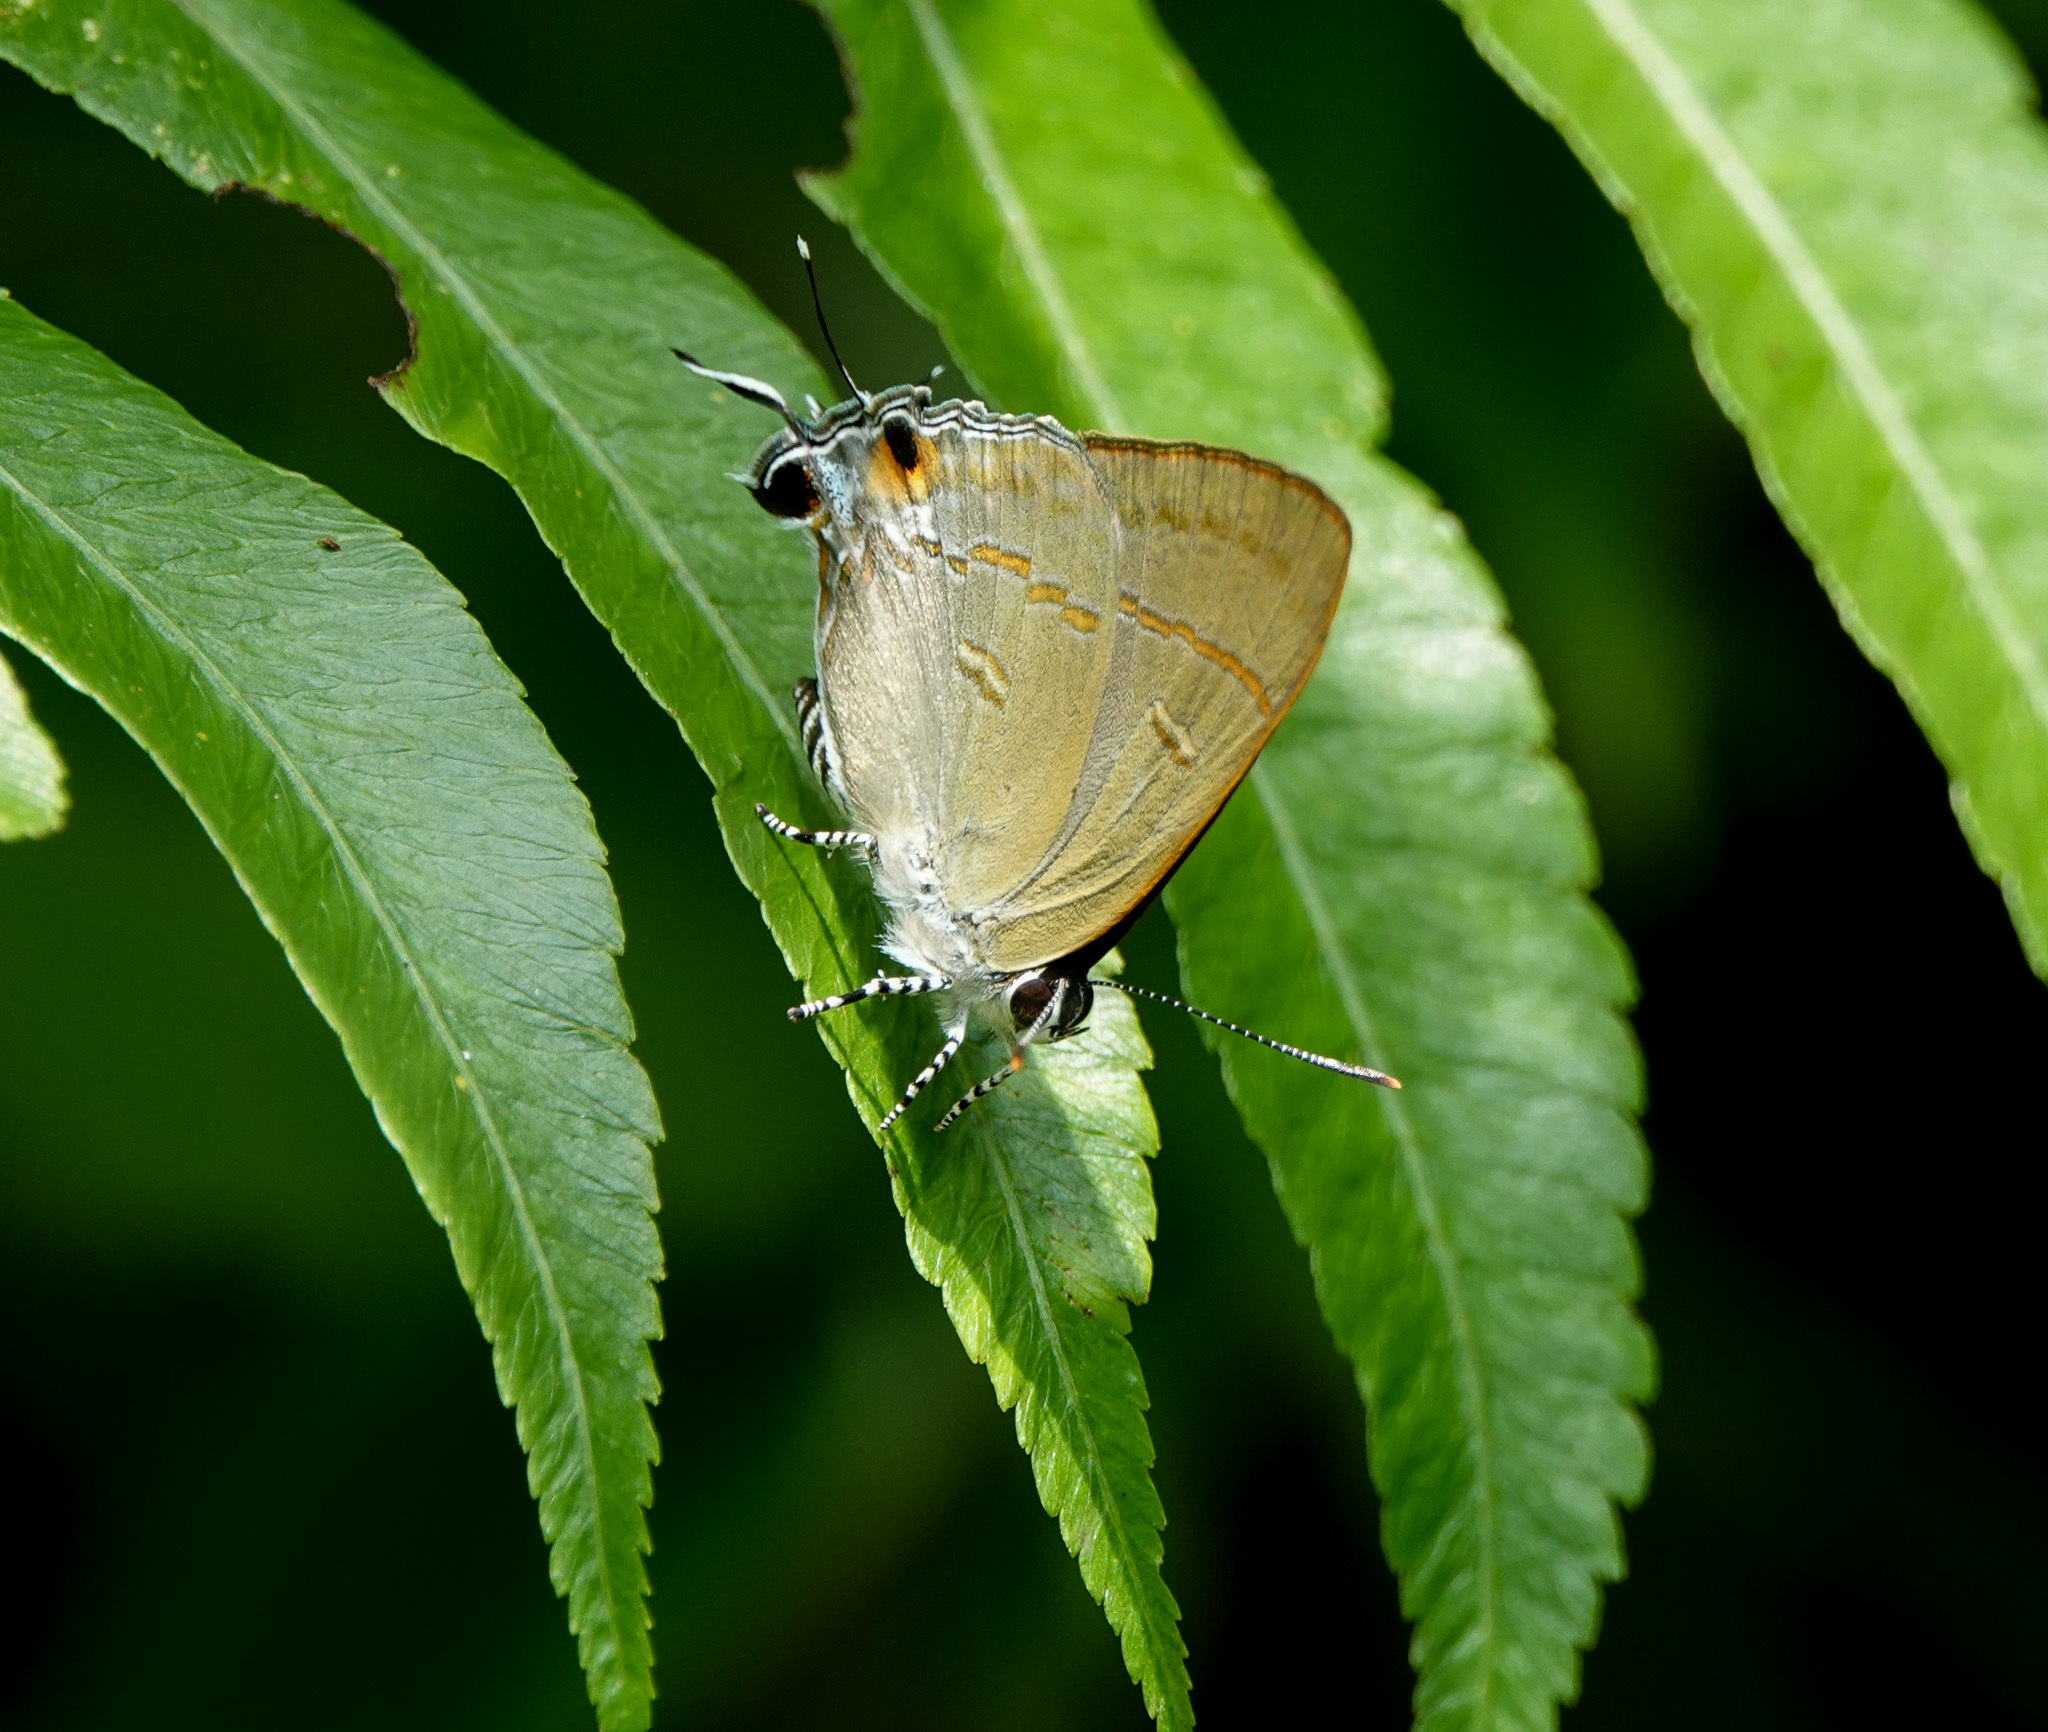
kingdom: Animalia
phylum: Arthropoda
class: Insecta
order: Lepidoptera
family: Lycaenidae
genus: Hypolycaena
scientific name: Hypolycaena erylus
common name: Common tit
